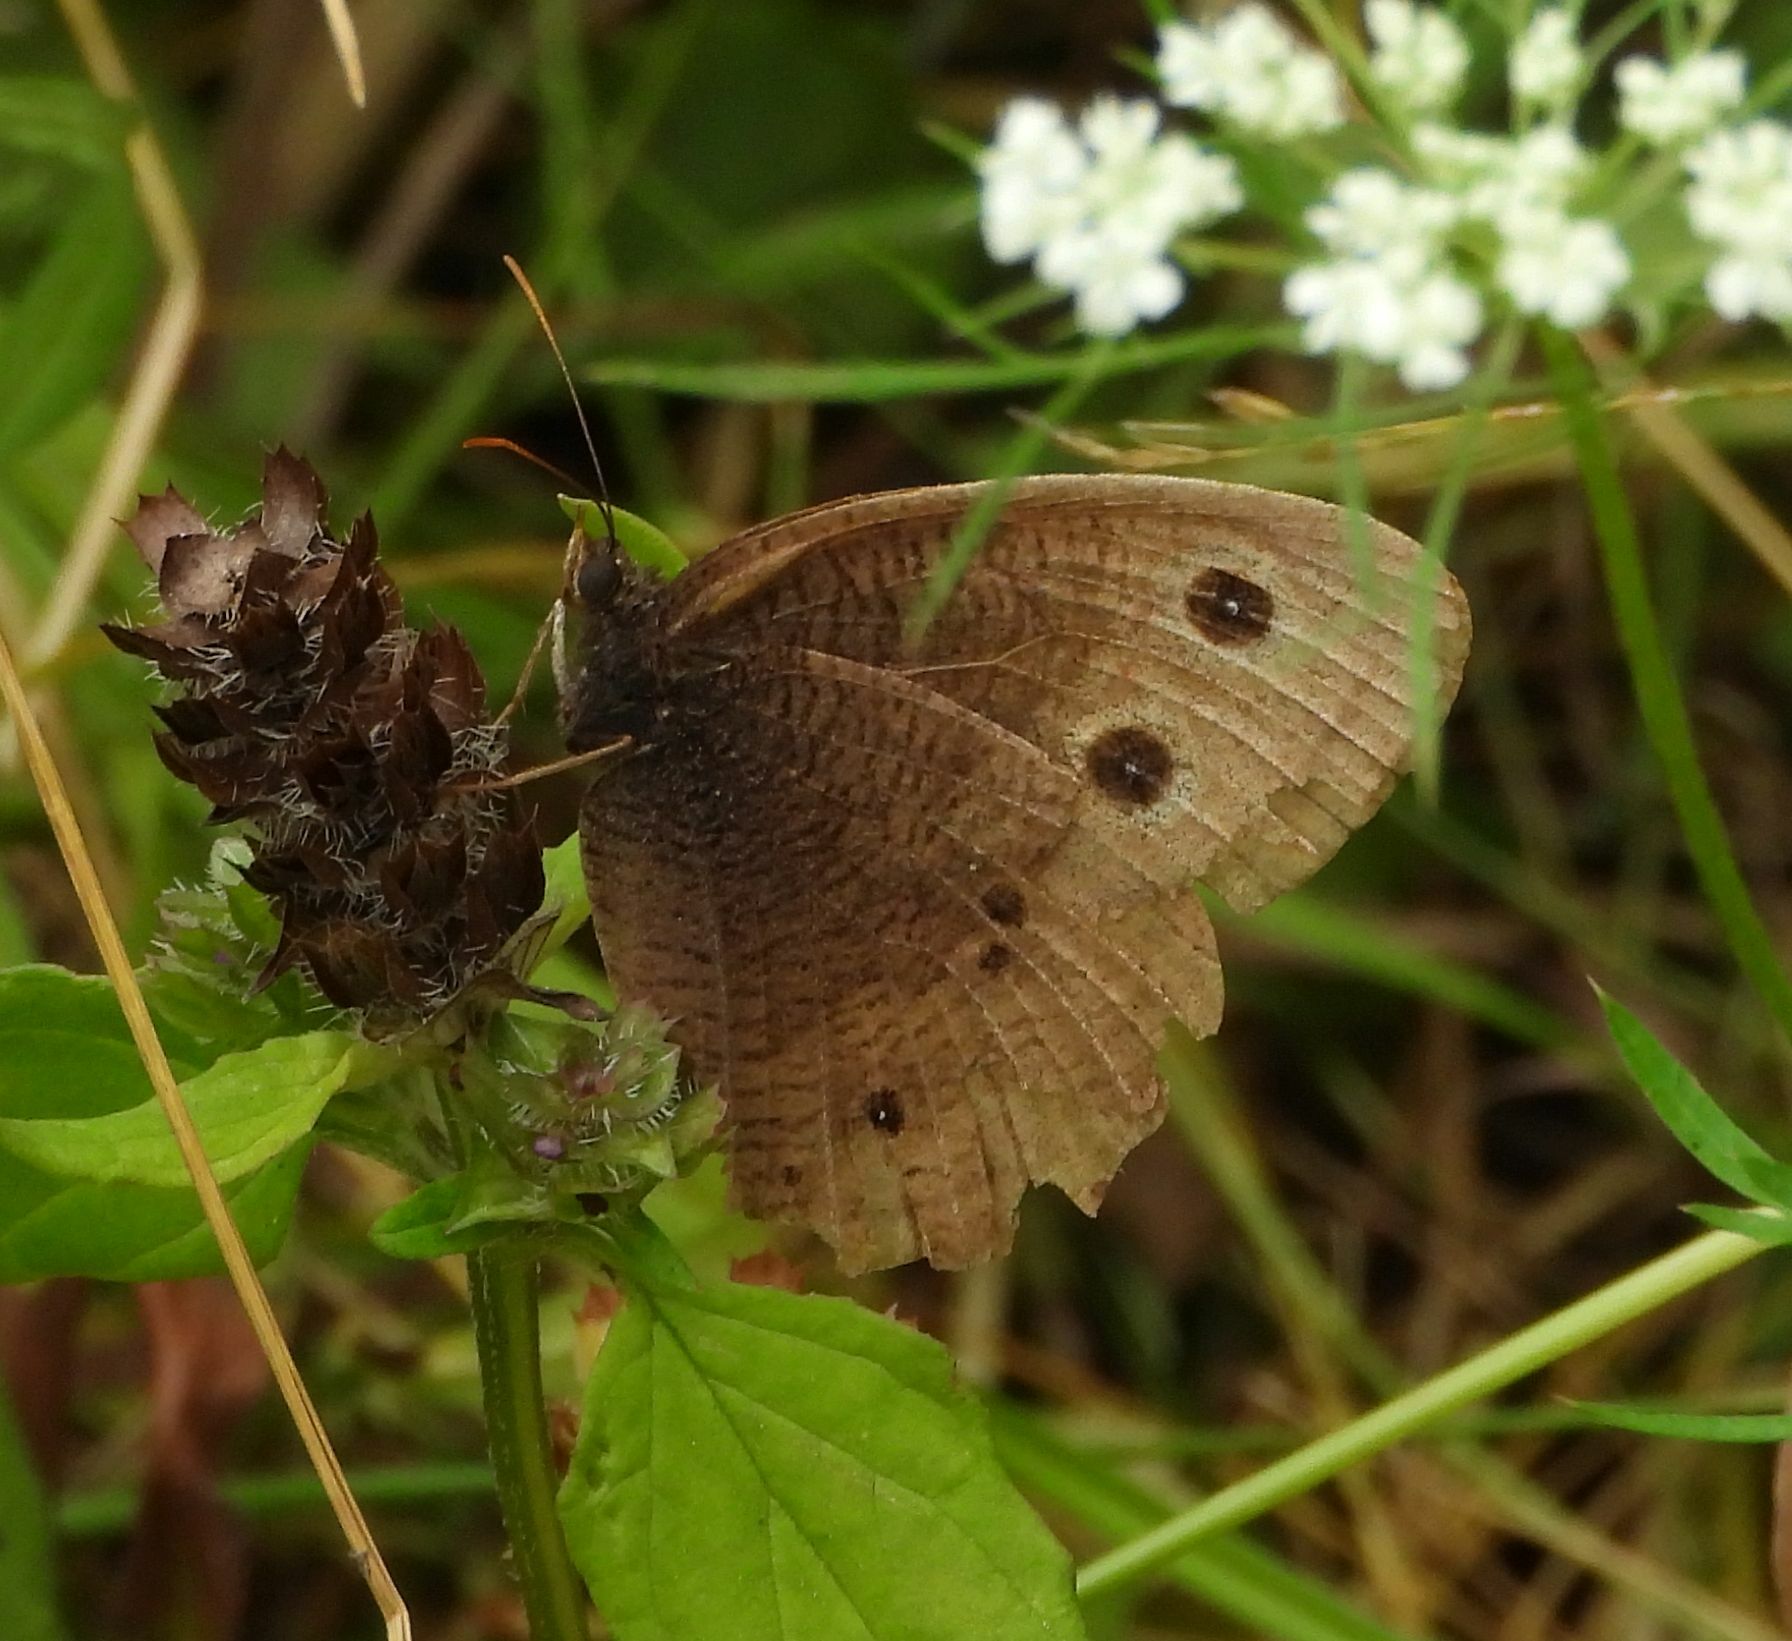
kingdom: Animalia
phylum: Arthropoda
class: Insecta
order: Lepidoptera
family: Nymphalidae
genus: Cercyonis
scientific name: Cercyonis pegala
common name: Common wood-nymph
